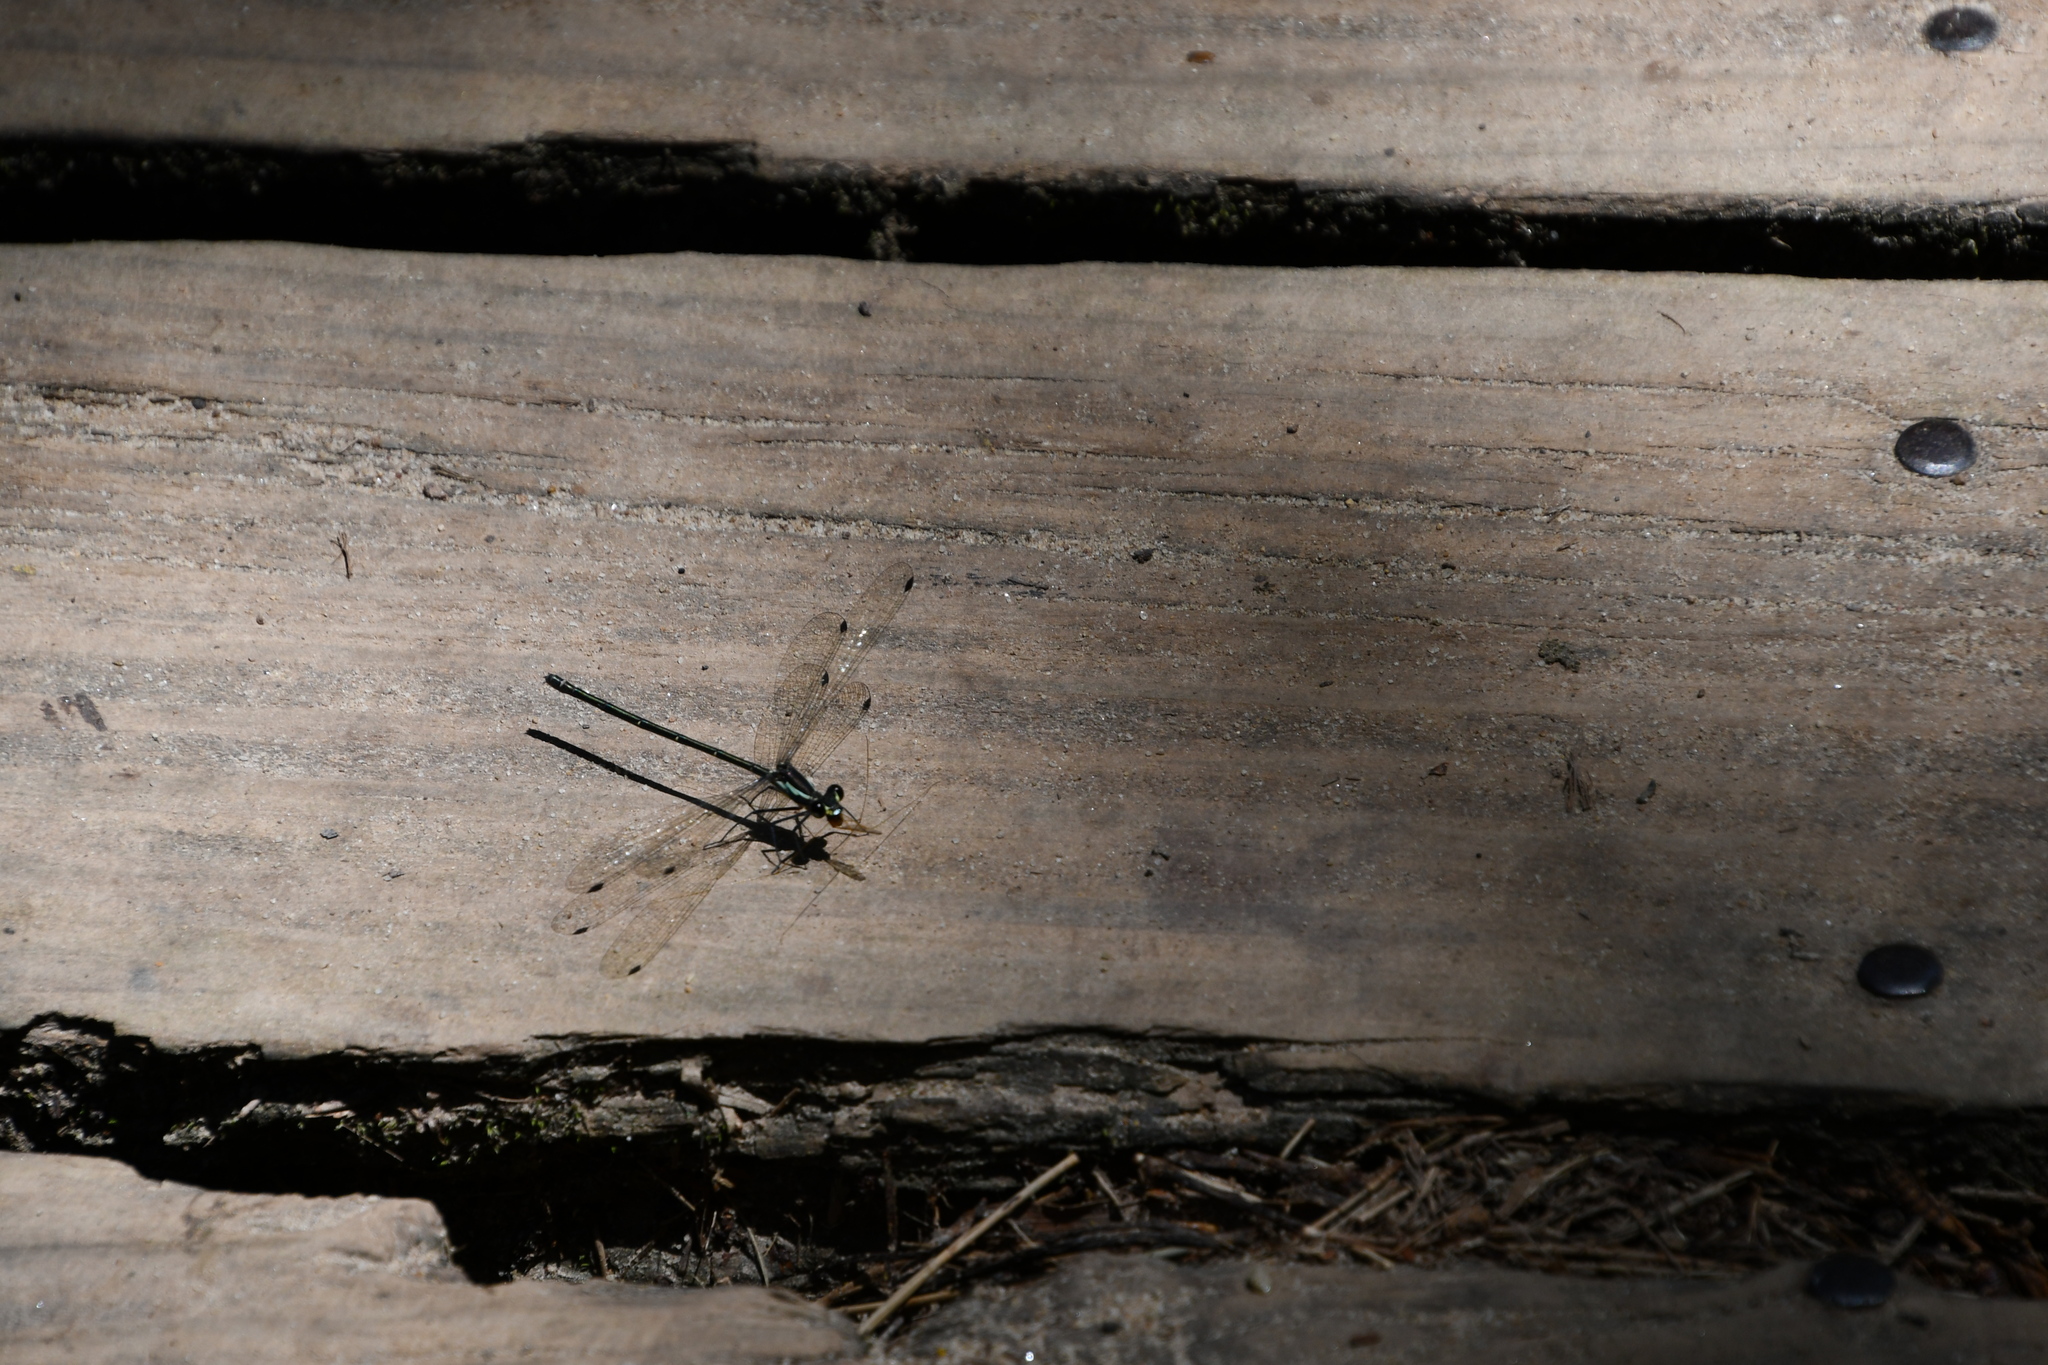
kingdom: Animalia
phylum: Arthropoda
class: Insecta
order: Odonata
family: Argiolestidae
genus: Austroargiolestes
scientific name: Austroargiolestes icteromelas
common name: Common flatwing
